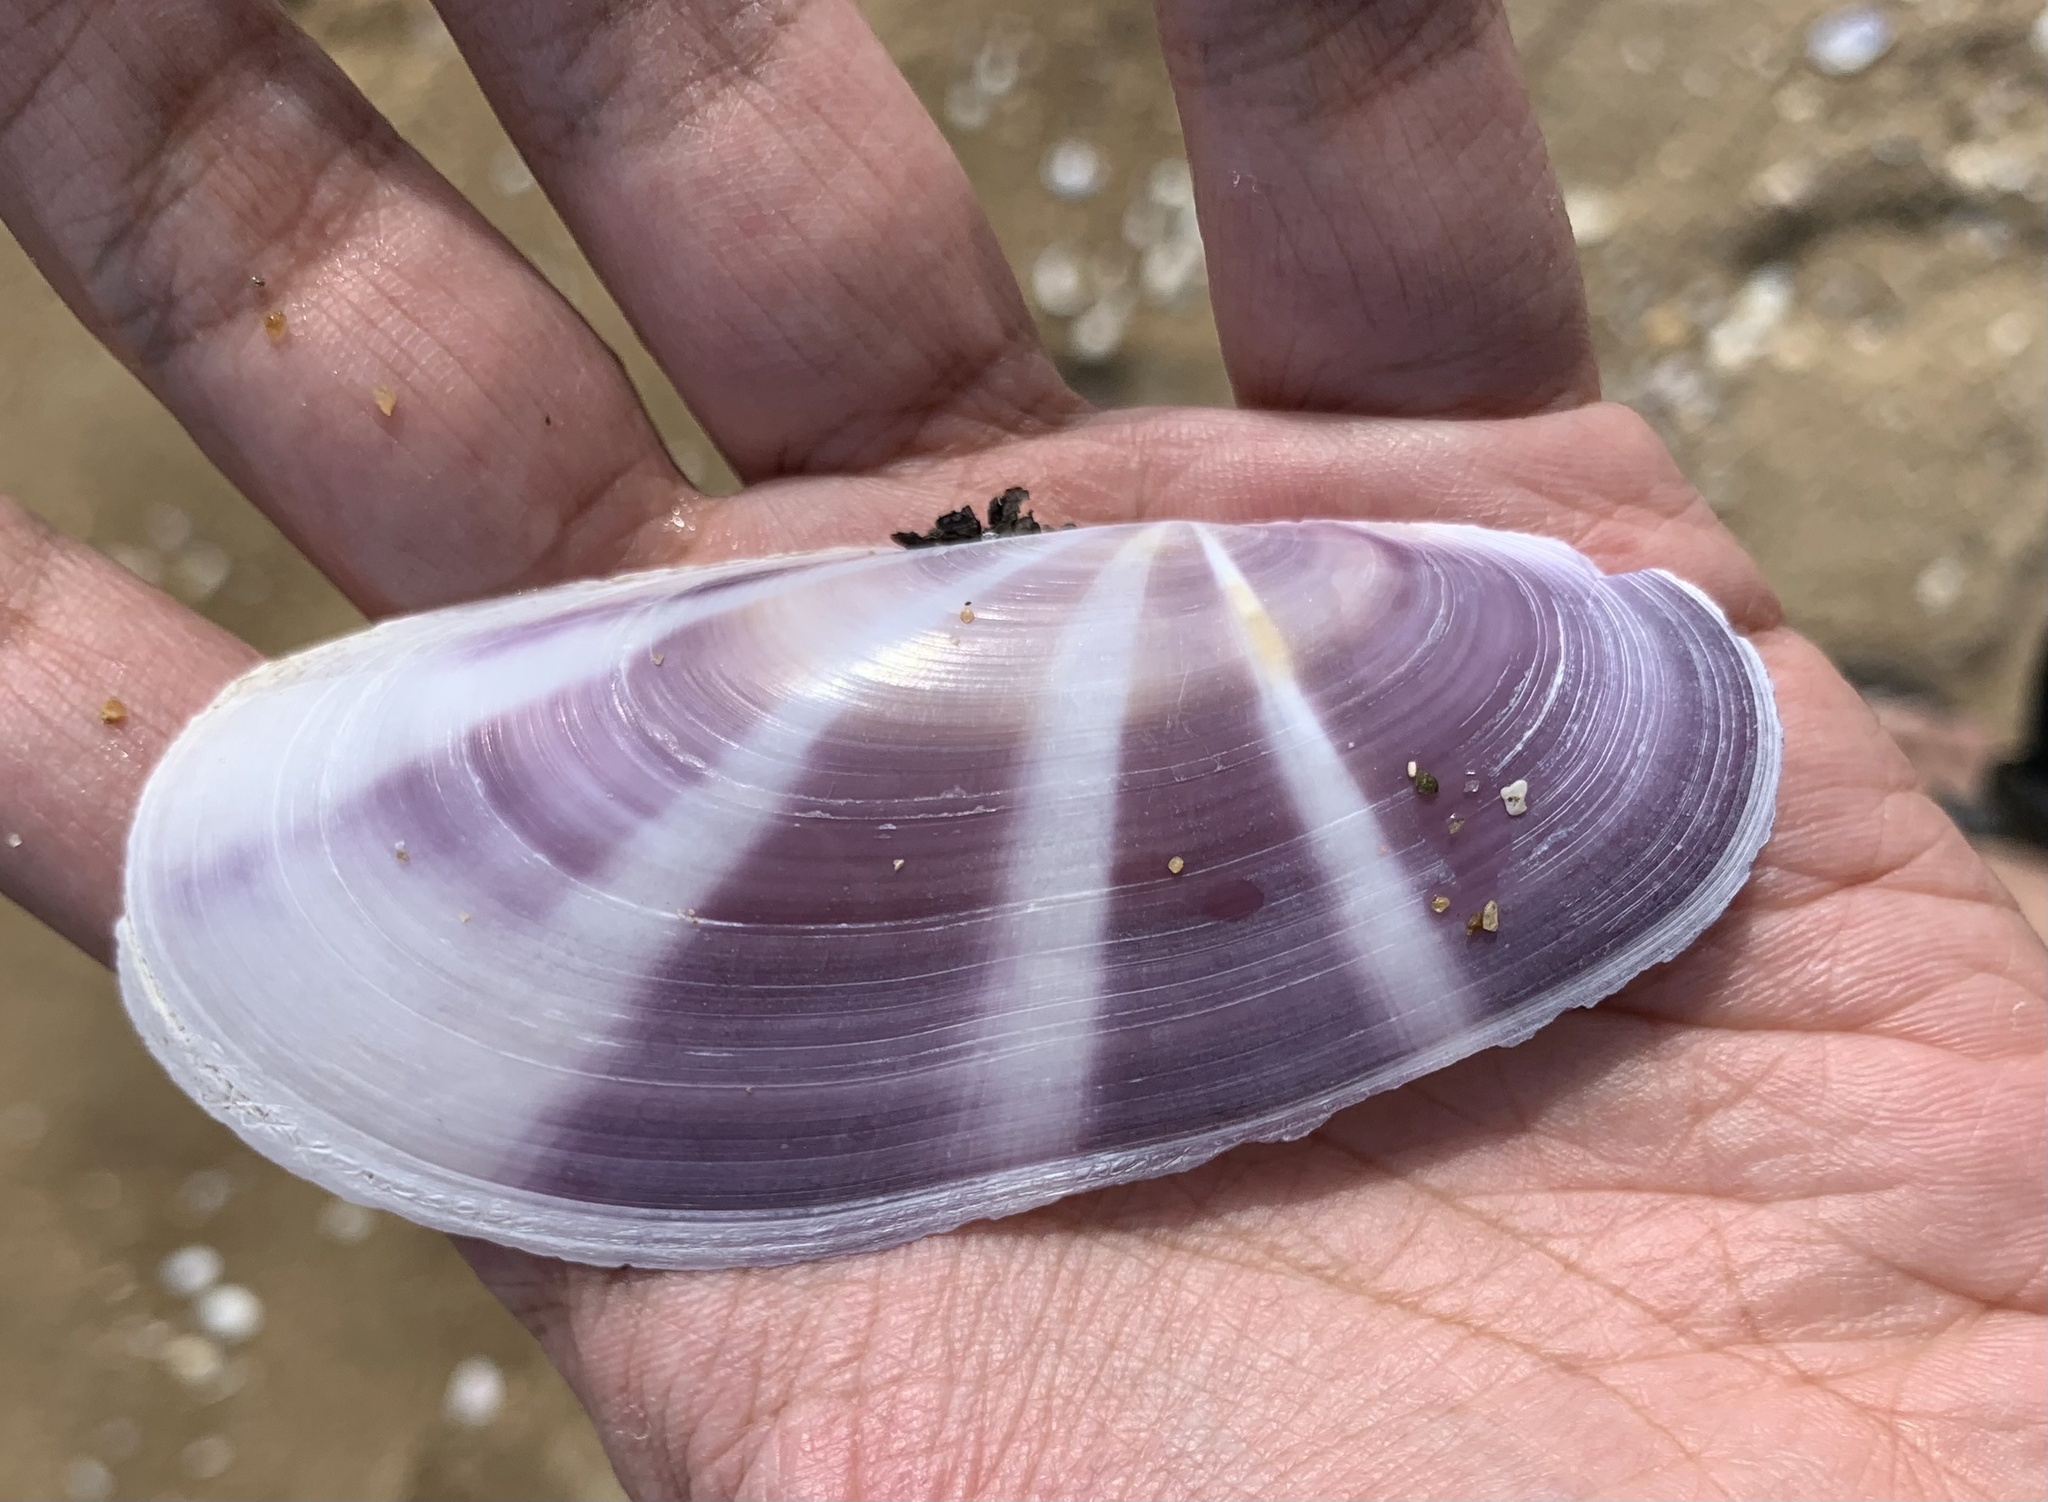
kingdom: Animalia
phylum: Mollusca
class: Bivalvia
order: Adapedonta
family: Pharidae
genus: Siliqua
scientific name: Siliqua radiata
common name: Sunset razor clam
